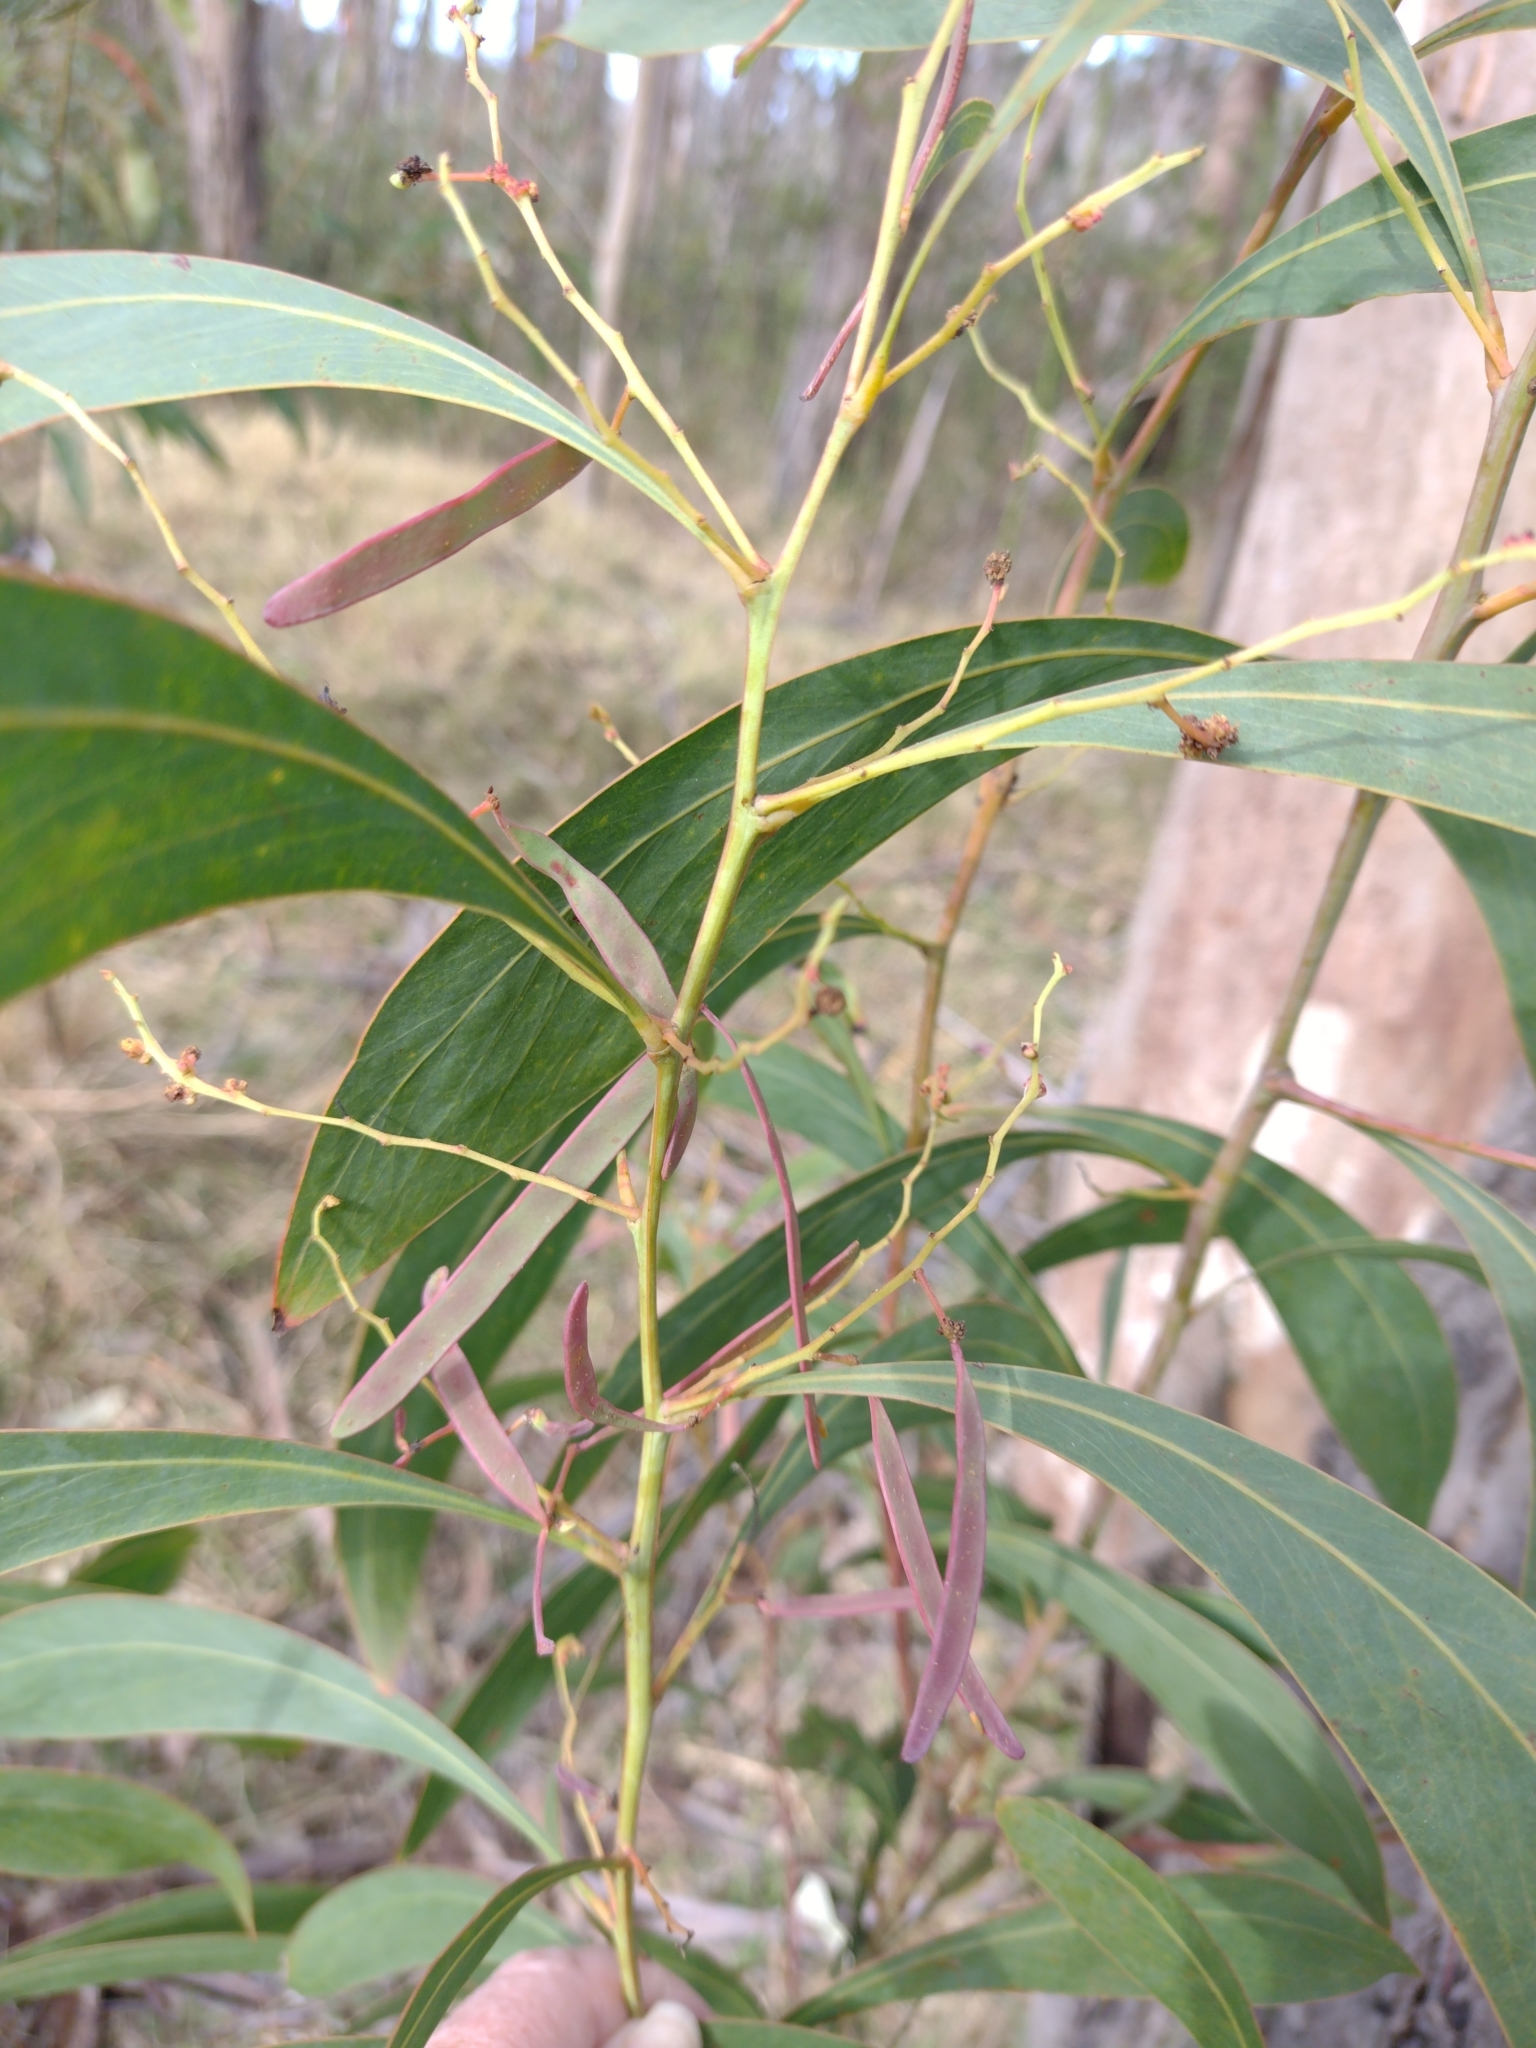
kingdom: Plantae
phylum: Tracheophyta
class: Magnoliopsida
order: Fabales
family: Fabaceae
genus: Acacia
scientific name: Acacia falcata
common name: Burra acacia
